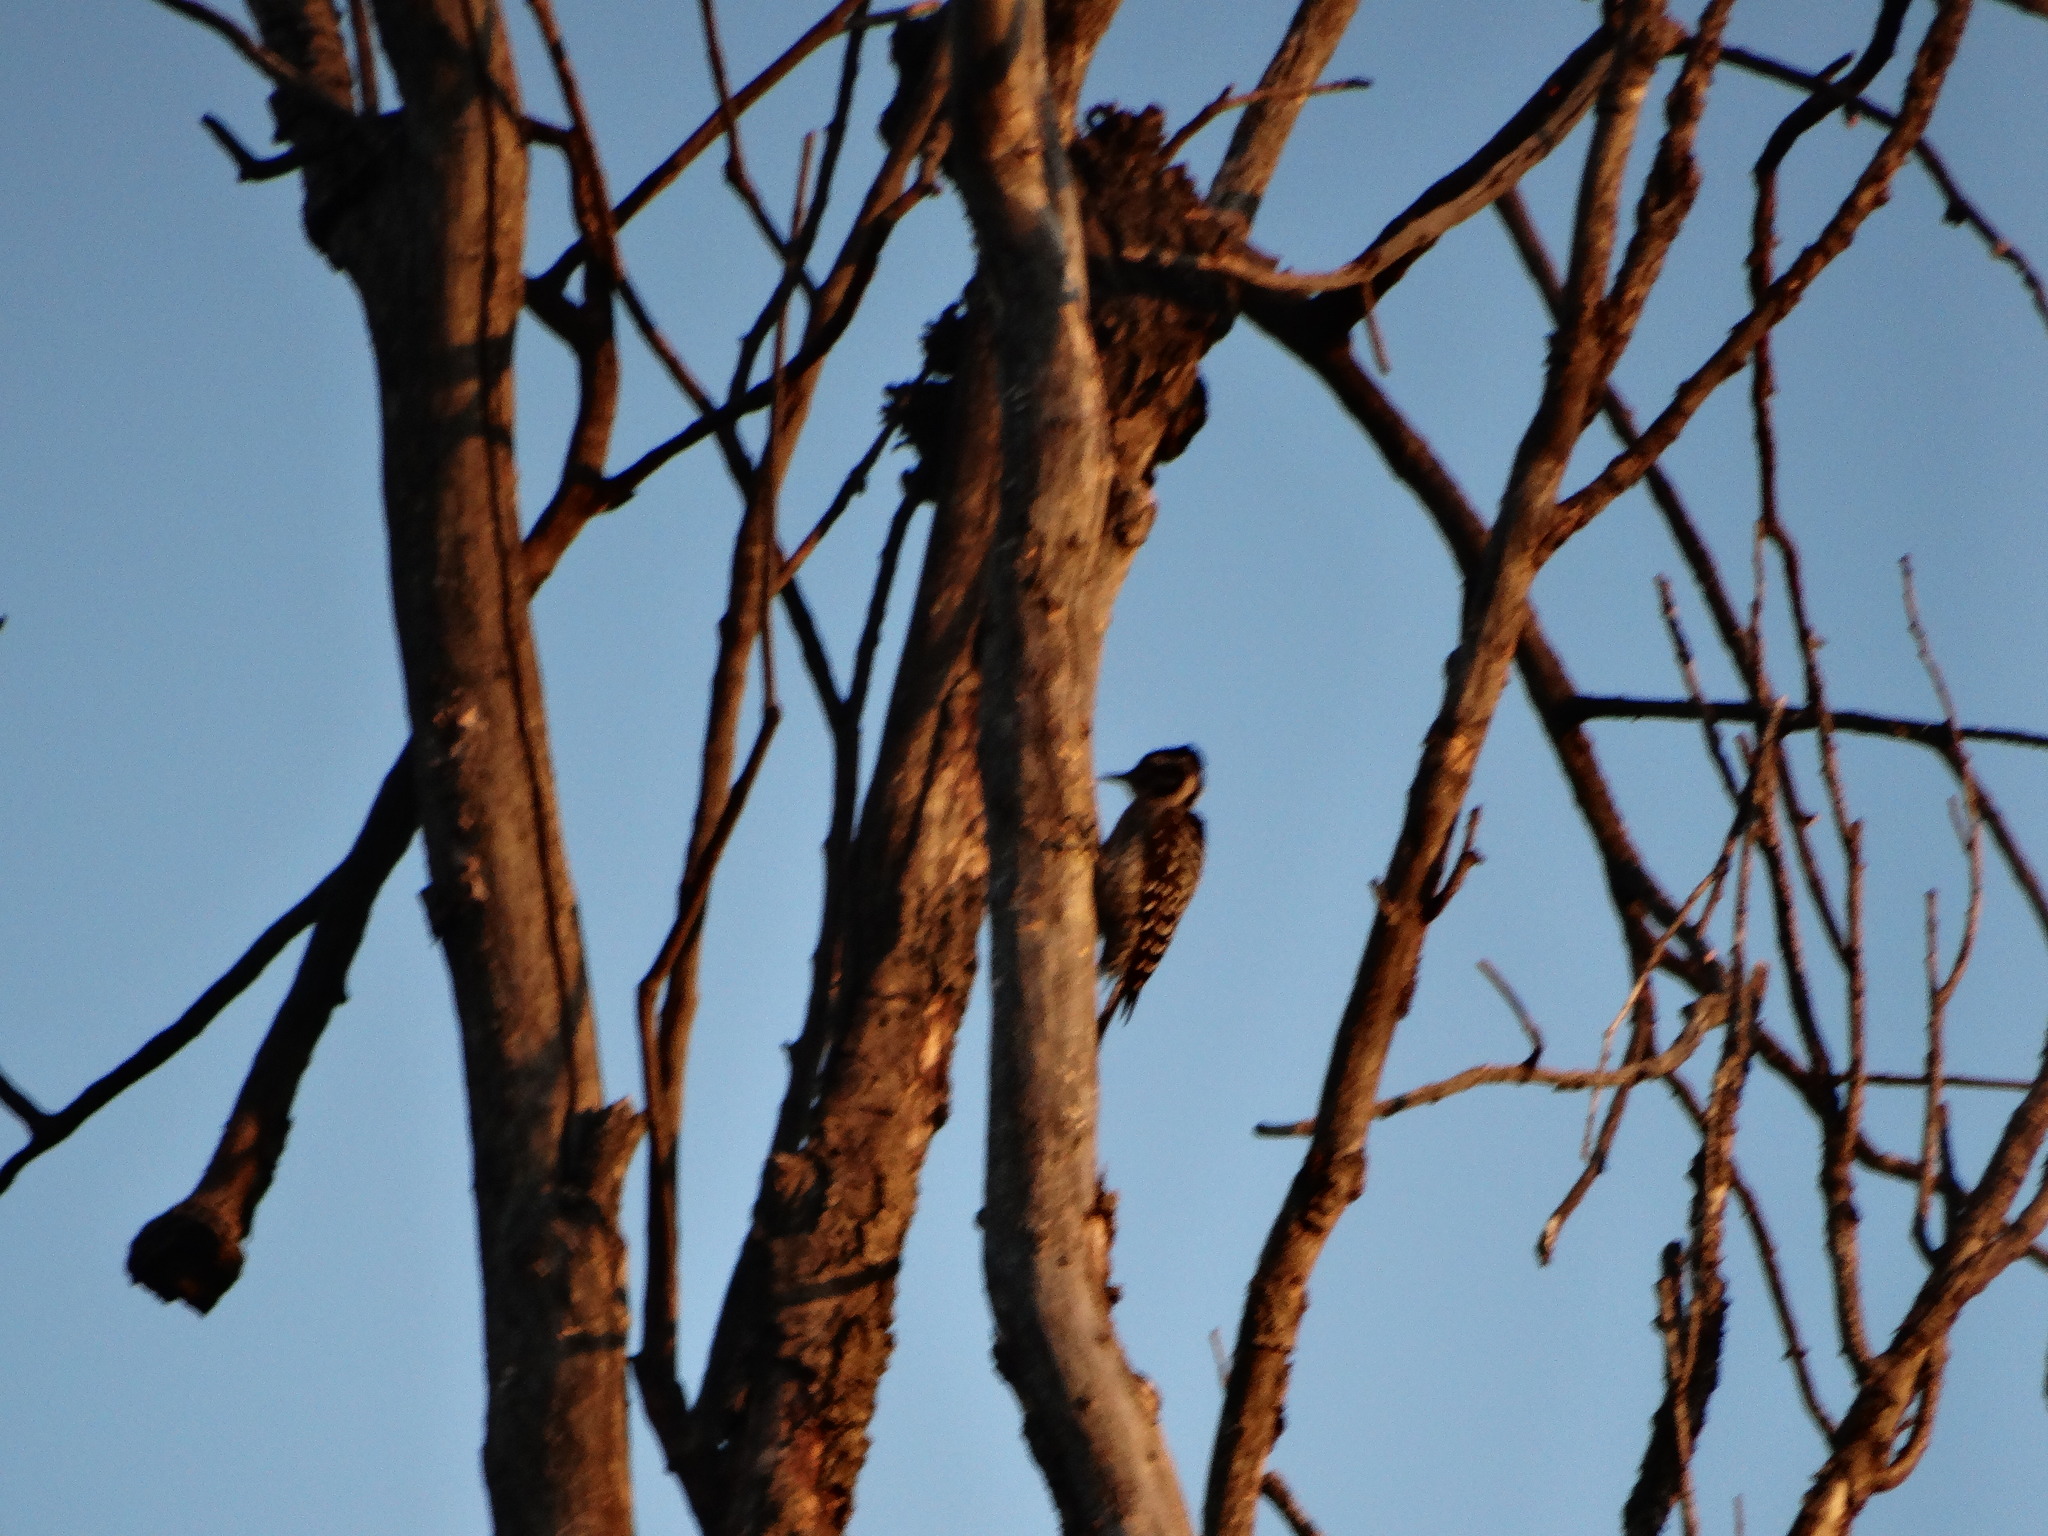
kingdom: Animalia
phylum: Chordata
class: Aves
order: Piciformes
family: Picidae
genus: Dryobates
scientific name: Dryobates scalaris
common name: Ladder-backed woodpecker
